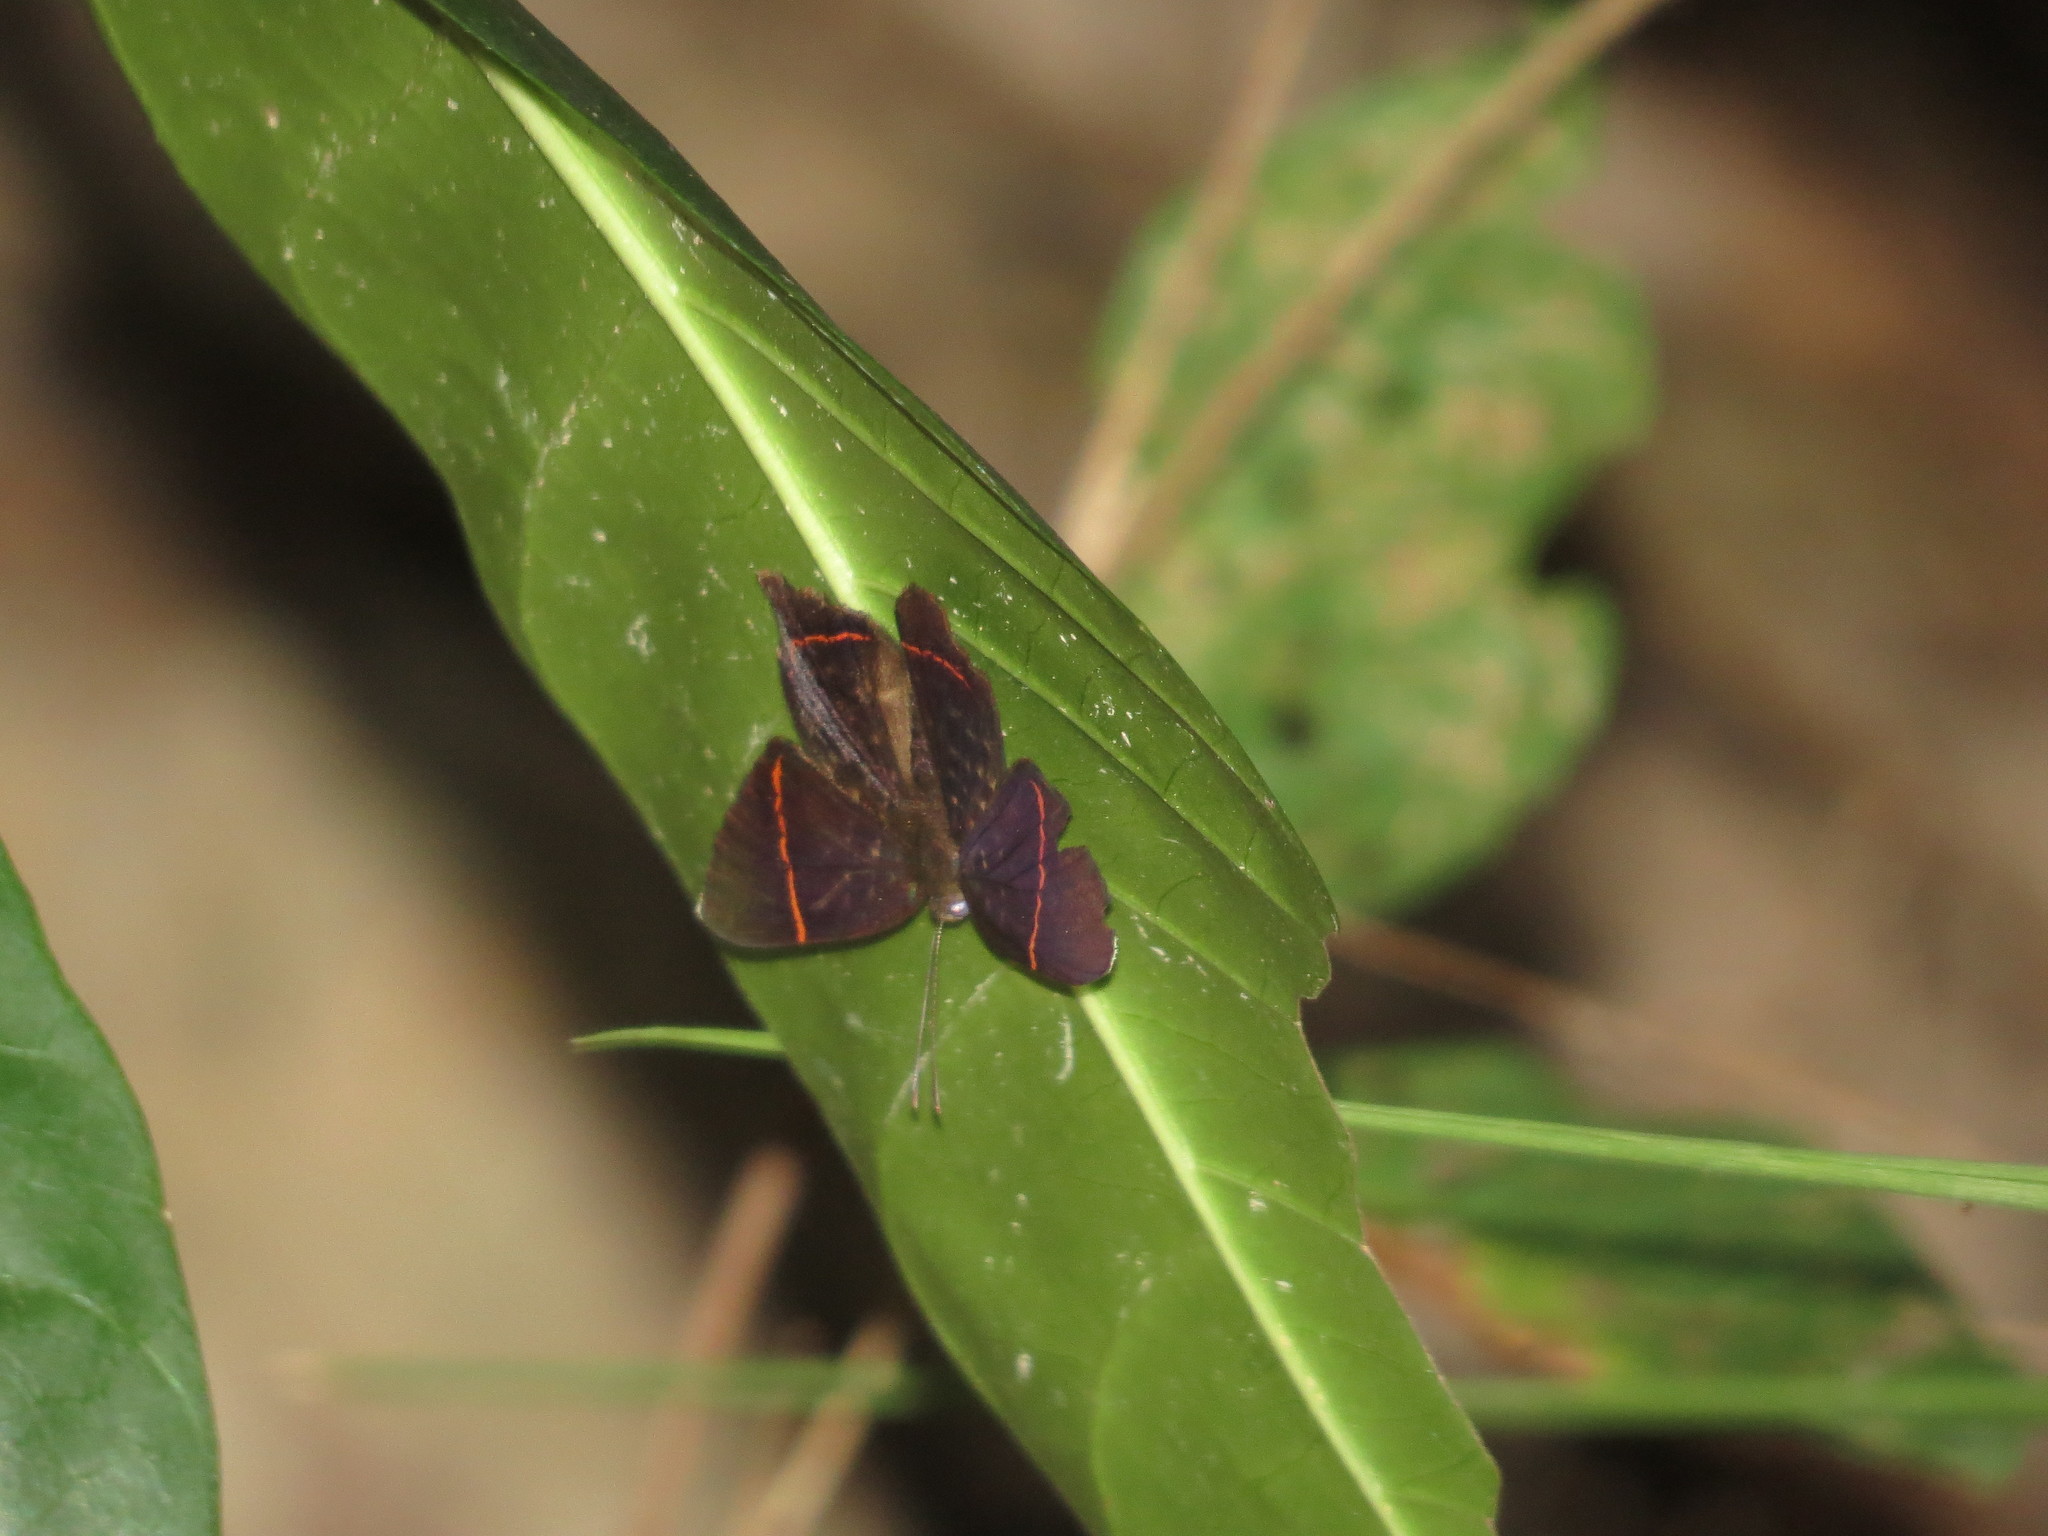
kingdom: Animalia
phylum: Arthropoda
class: Insecta
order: Lepidoptera
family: Riodinidae
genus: Riodina
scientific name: Riodina lysippus
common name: Lysippus metalmark
